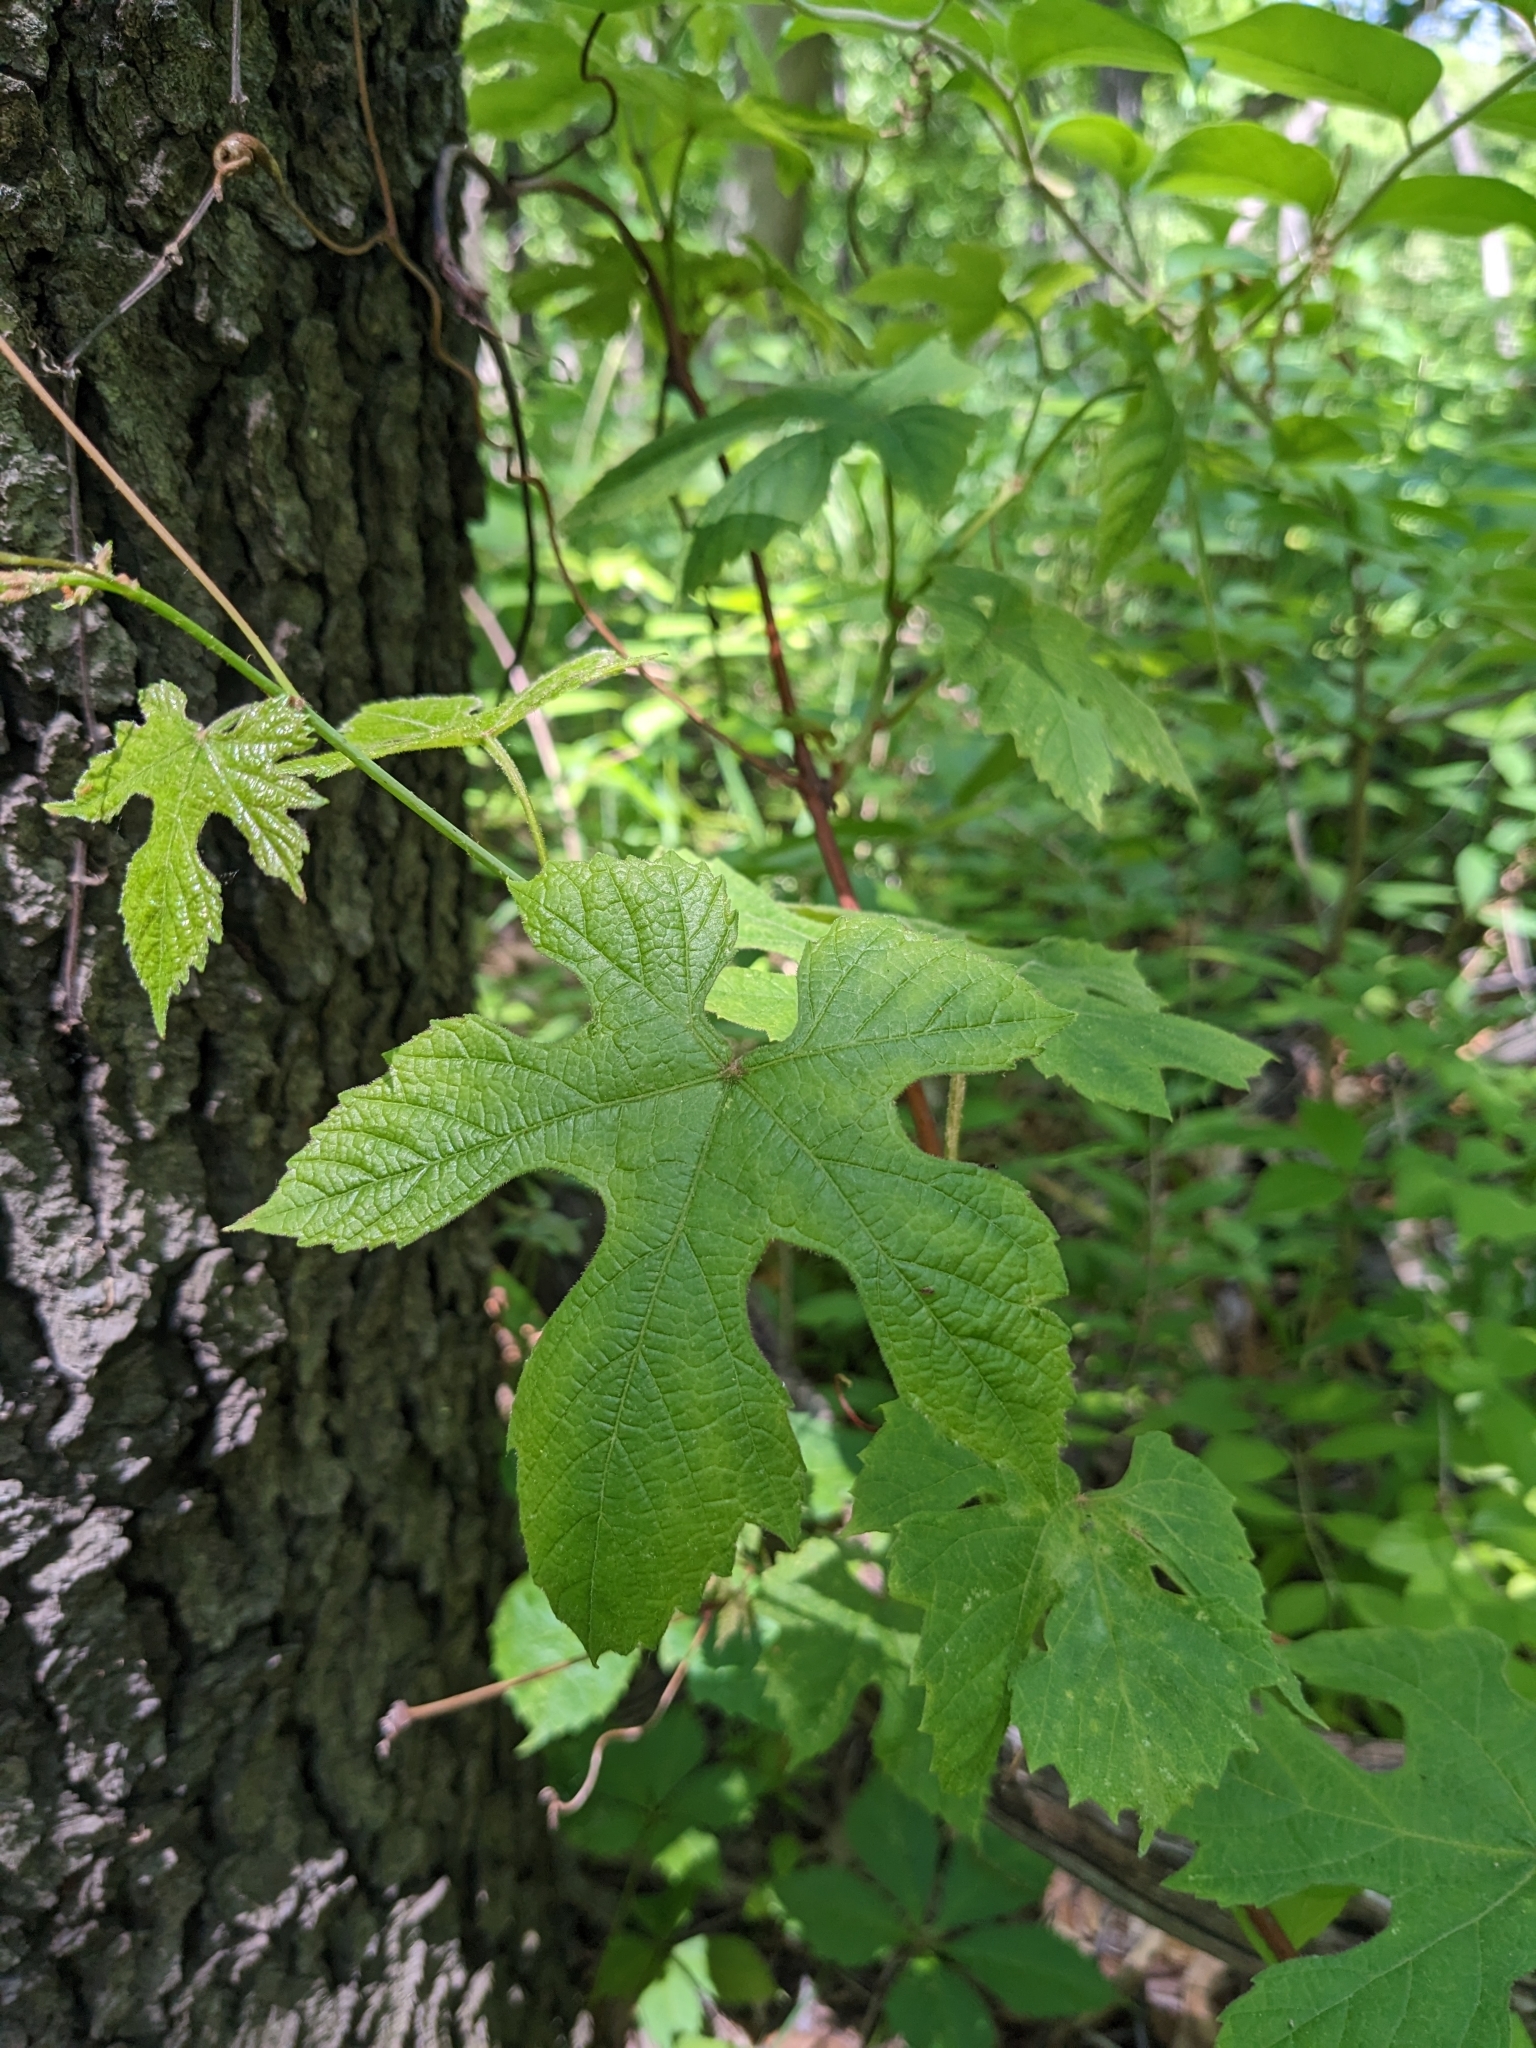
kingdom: Plantae
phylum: Tracheophyta
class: Magnoliopsida
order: Vitales
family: Vitaceae
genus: Vitis
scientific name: Vitis aestivalis
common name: Pigeon grape
